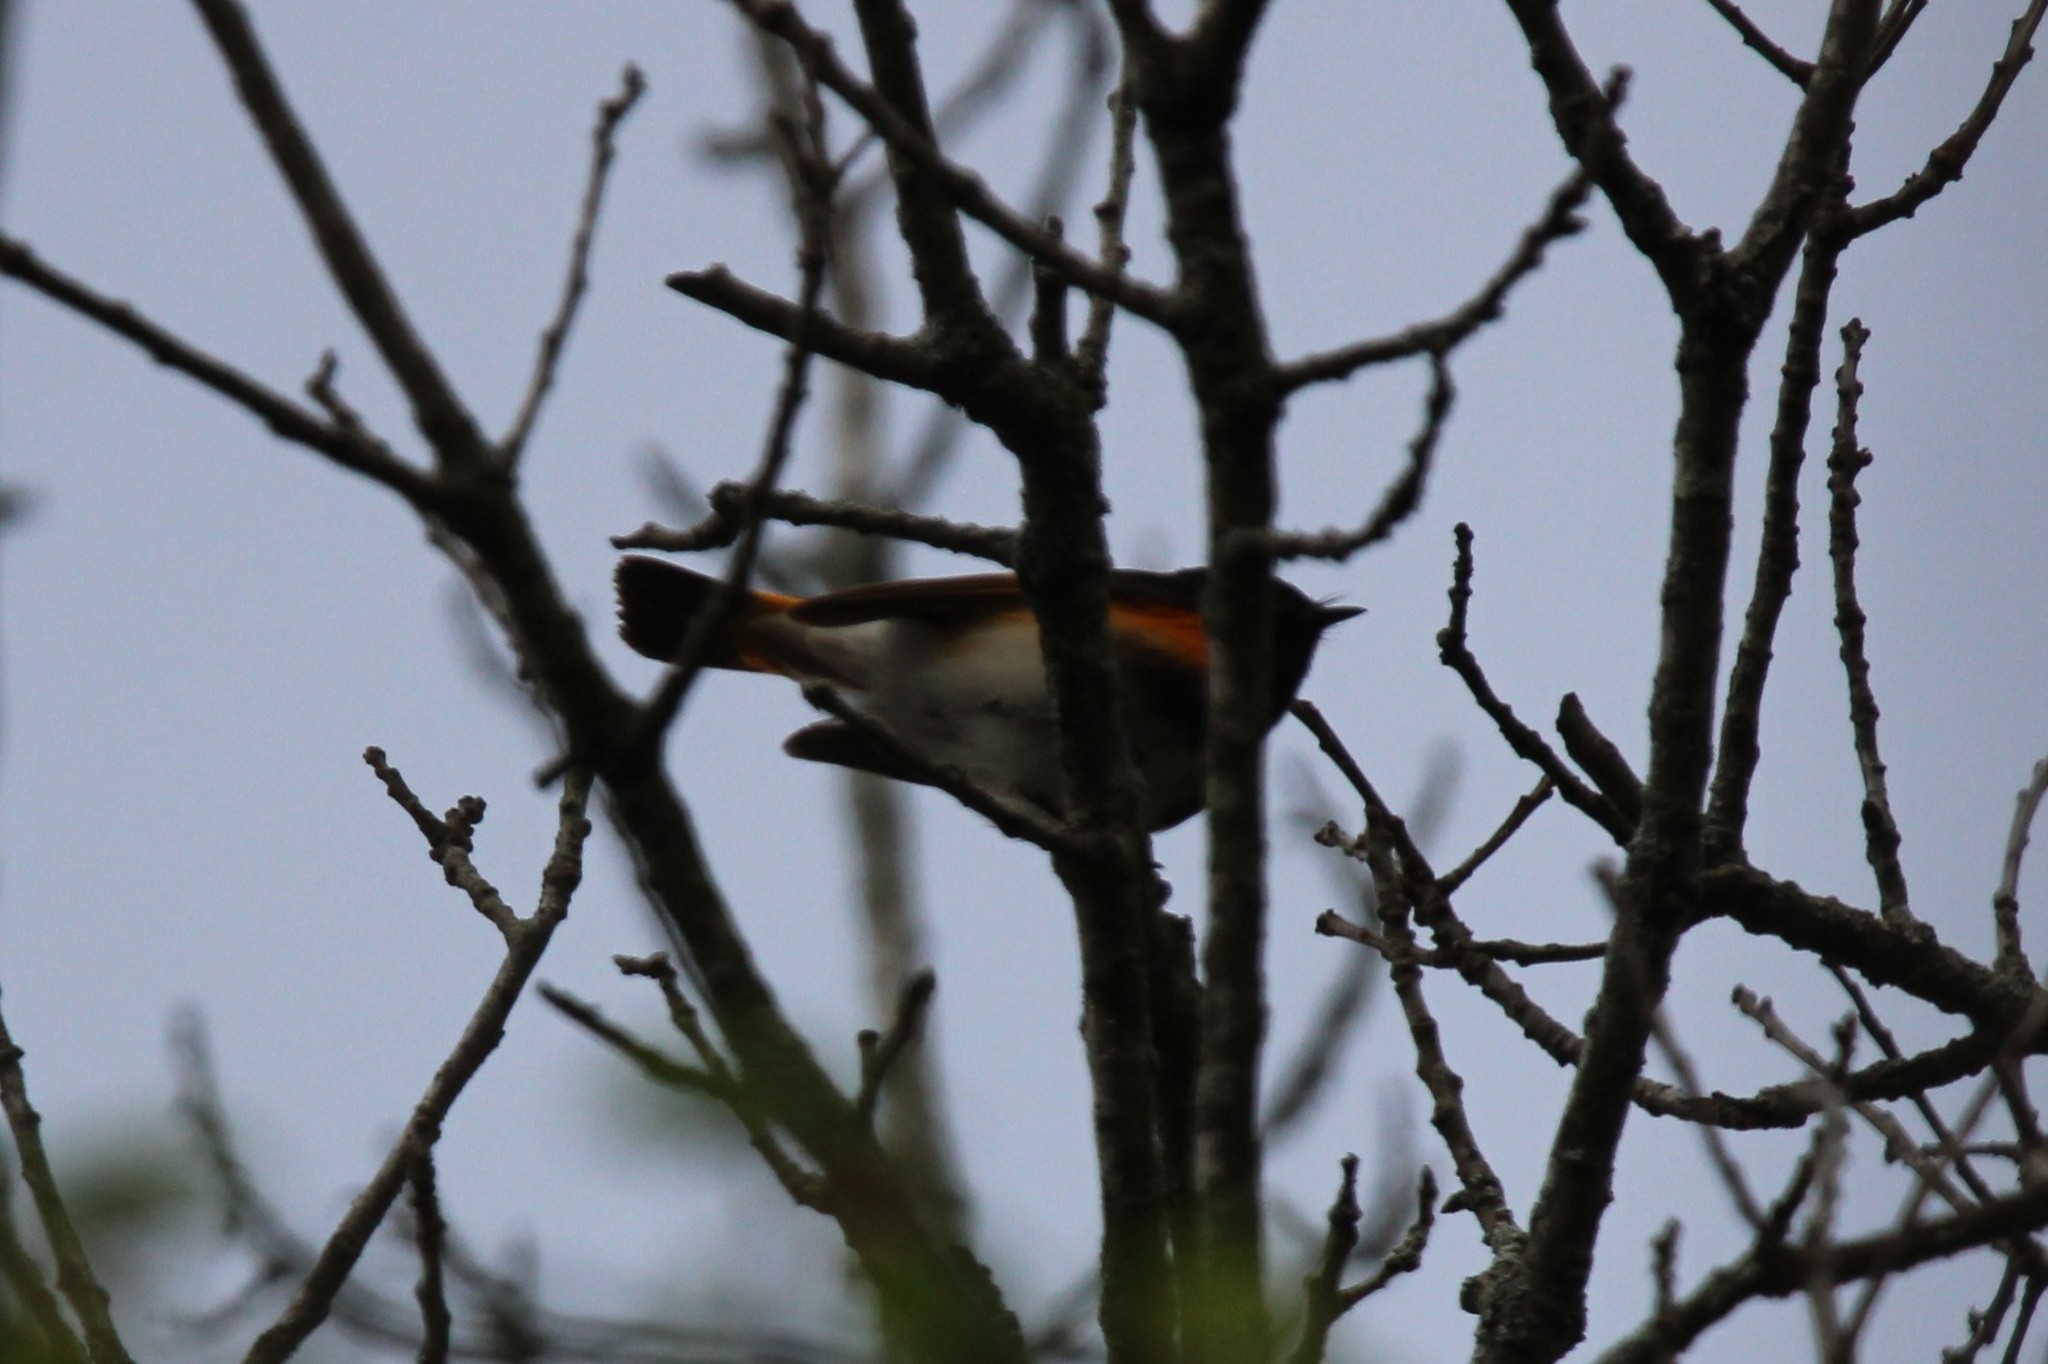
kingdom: Animalia
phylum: Chordata
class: Aves
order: Passeriformes
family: Parulidae
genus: Setophaga
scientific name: Setophaga ruticilla
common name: American redstart
